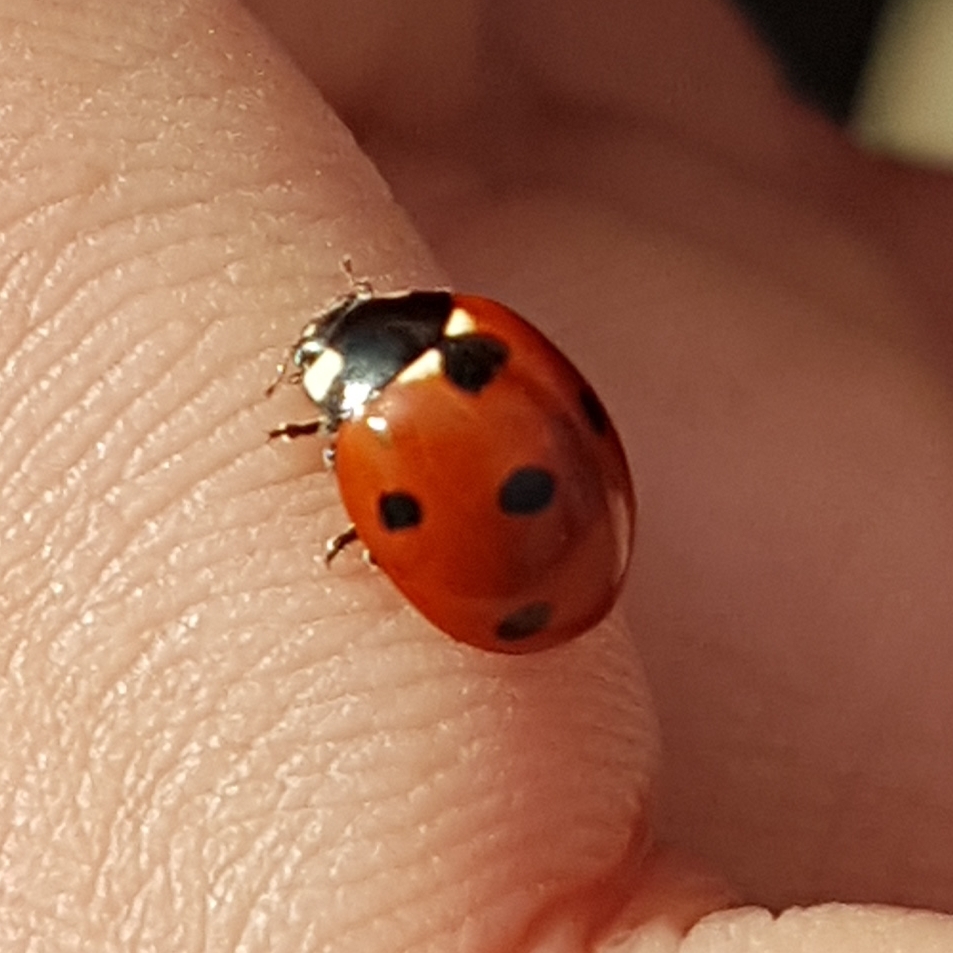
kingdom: Animalia
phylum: Arthropoda
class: Insecta
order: Coleoptera
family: Coccinellidae
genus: Coccinella
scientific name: Coccinella septempunctata
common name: Sevenspotted lady beetle
